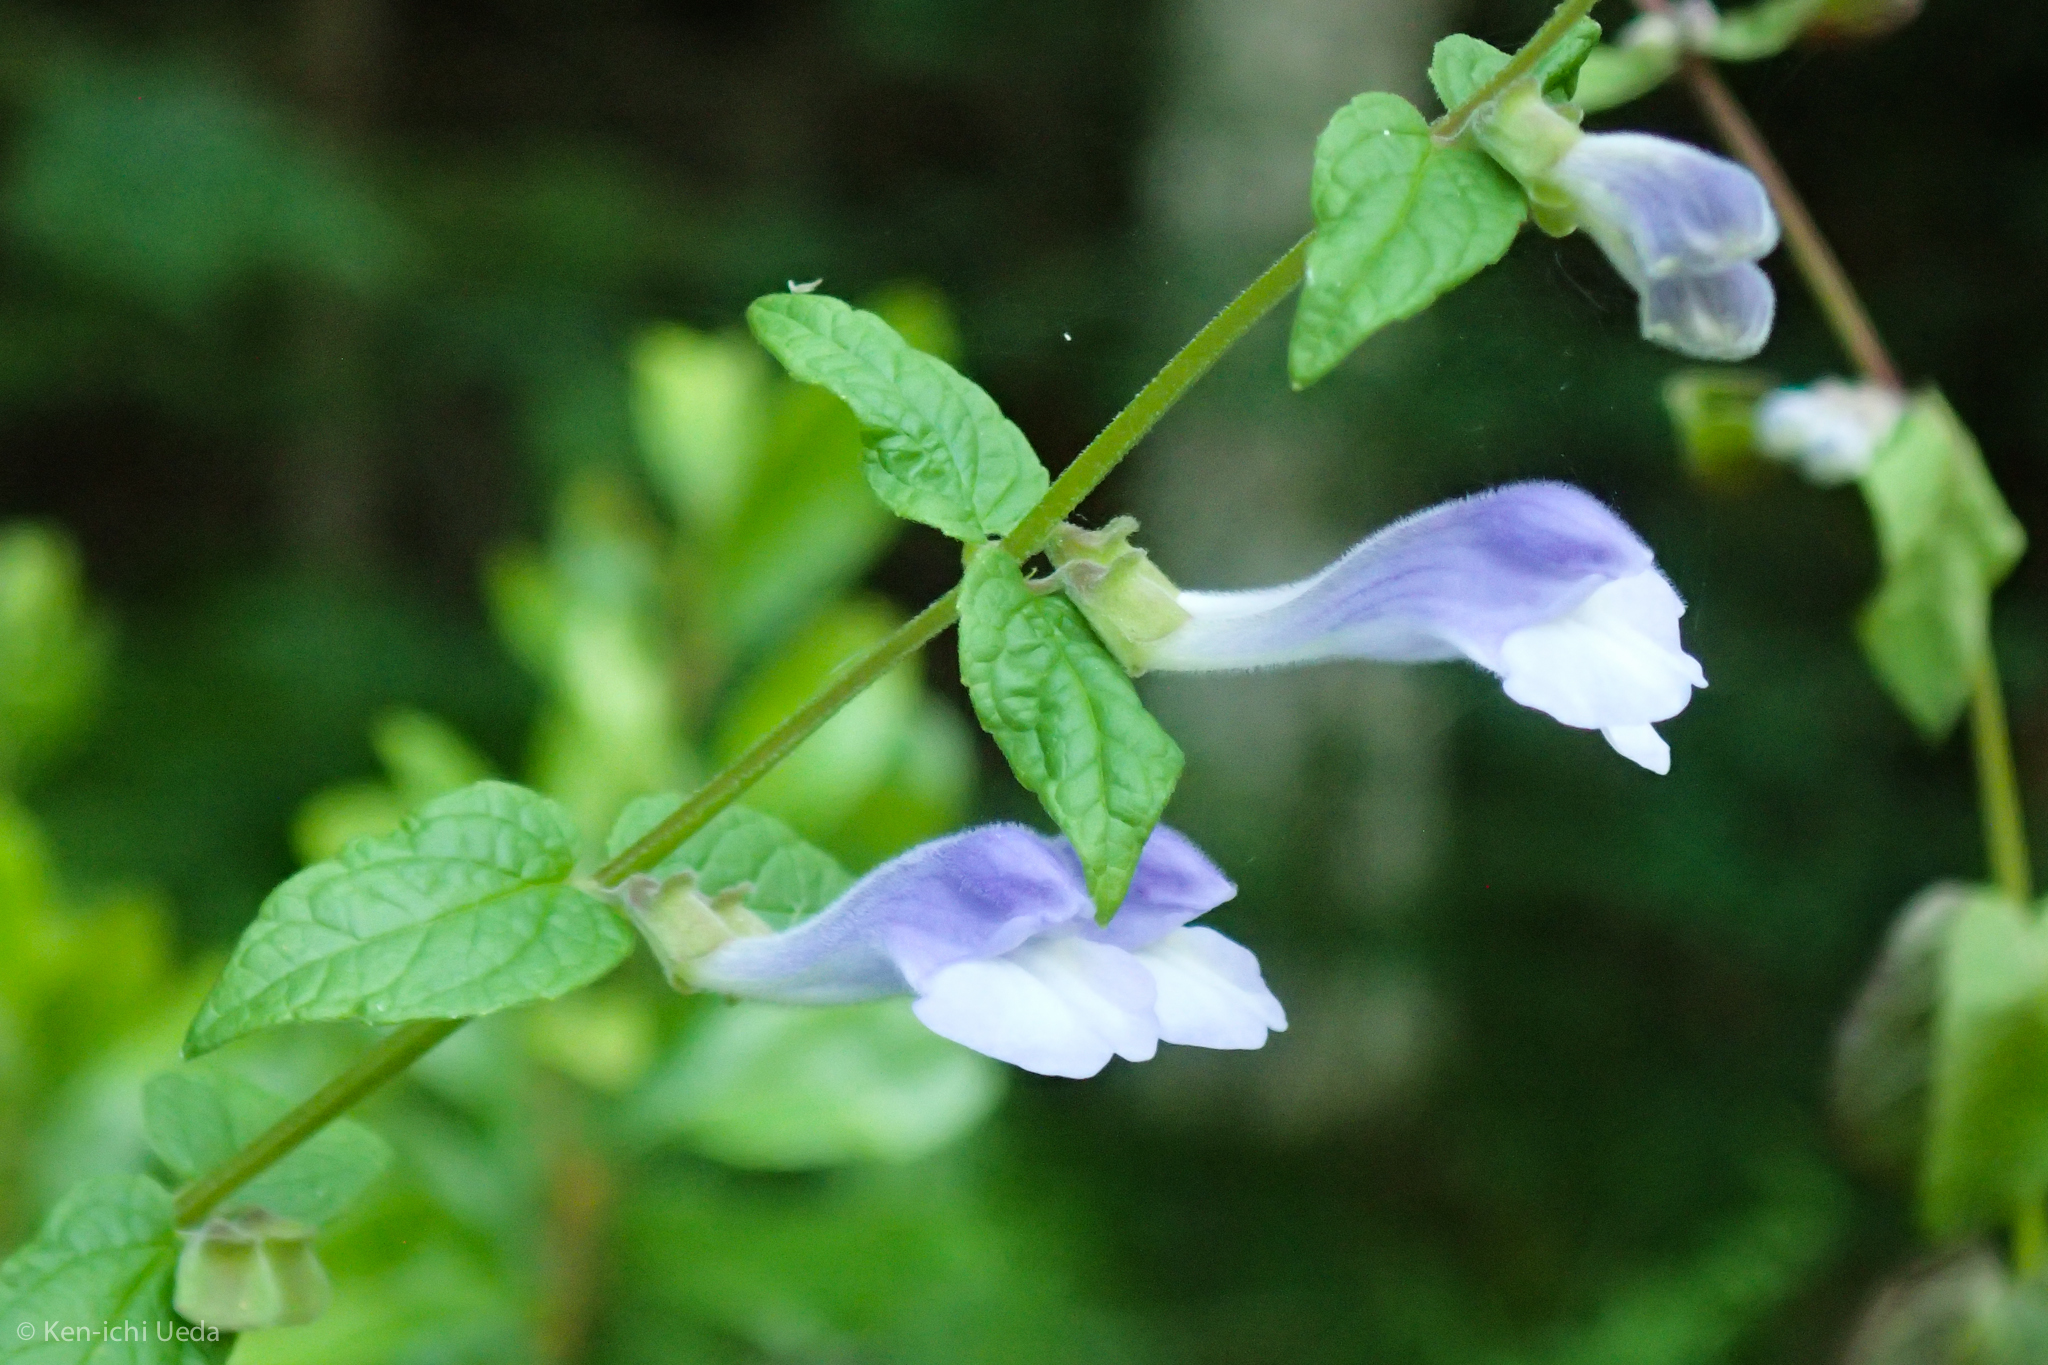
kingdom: Plantae
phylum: Tracheophyta
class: Magnoliopsida
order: Lamiales
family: Lamiaceae
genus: Scutellaria
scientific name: Scutellaria galericulata
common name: Skullcap
